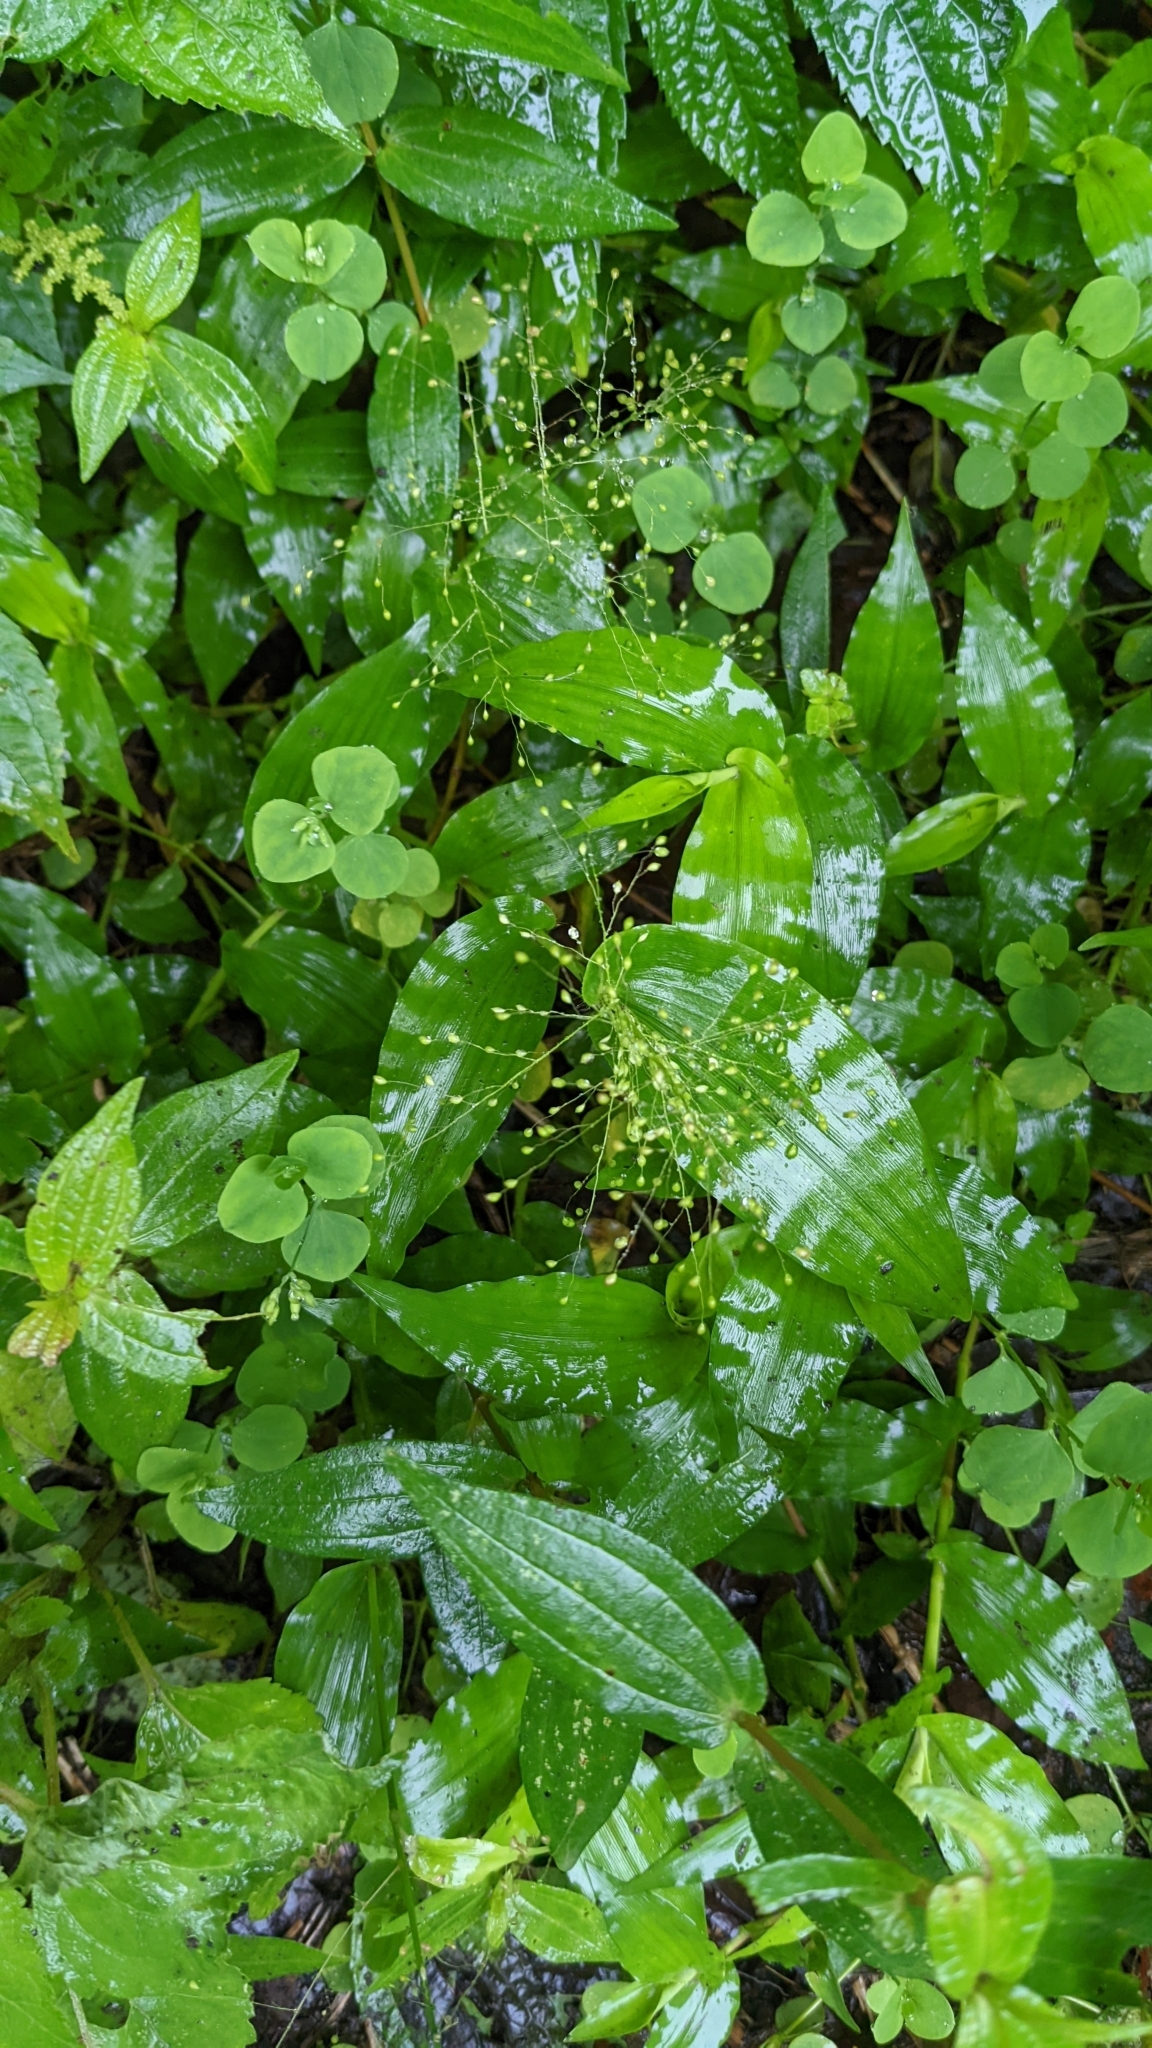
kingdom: Plantae
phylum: Tracheophyta
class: Liliopsida
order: Poales
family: Poaceae
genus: Panicum
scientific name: Panicum brevifolium
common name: Shortleaf panic grass
